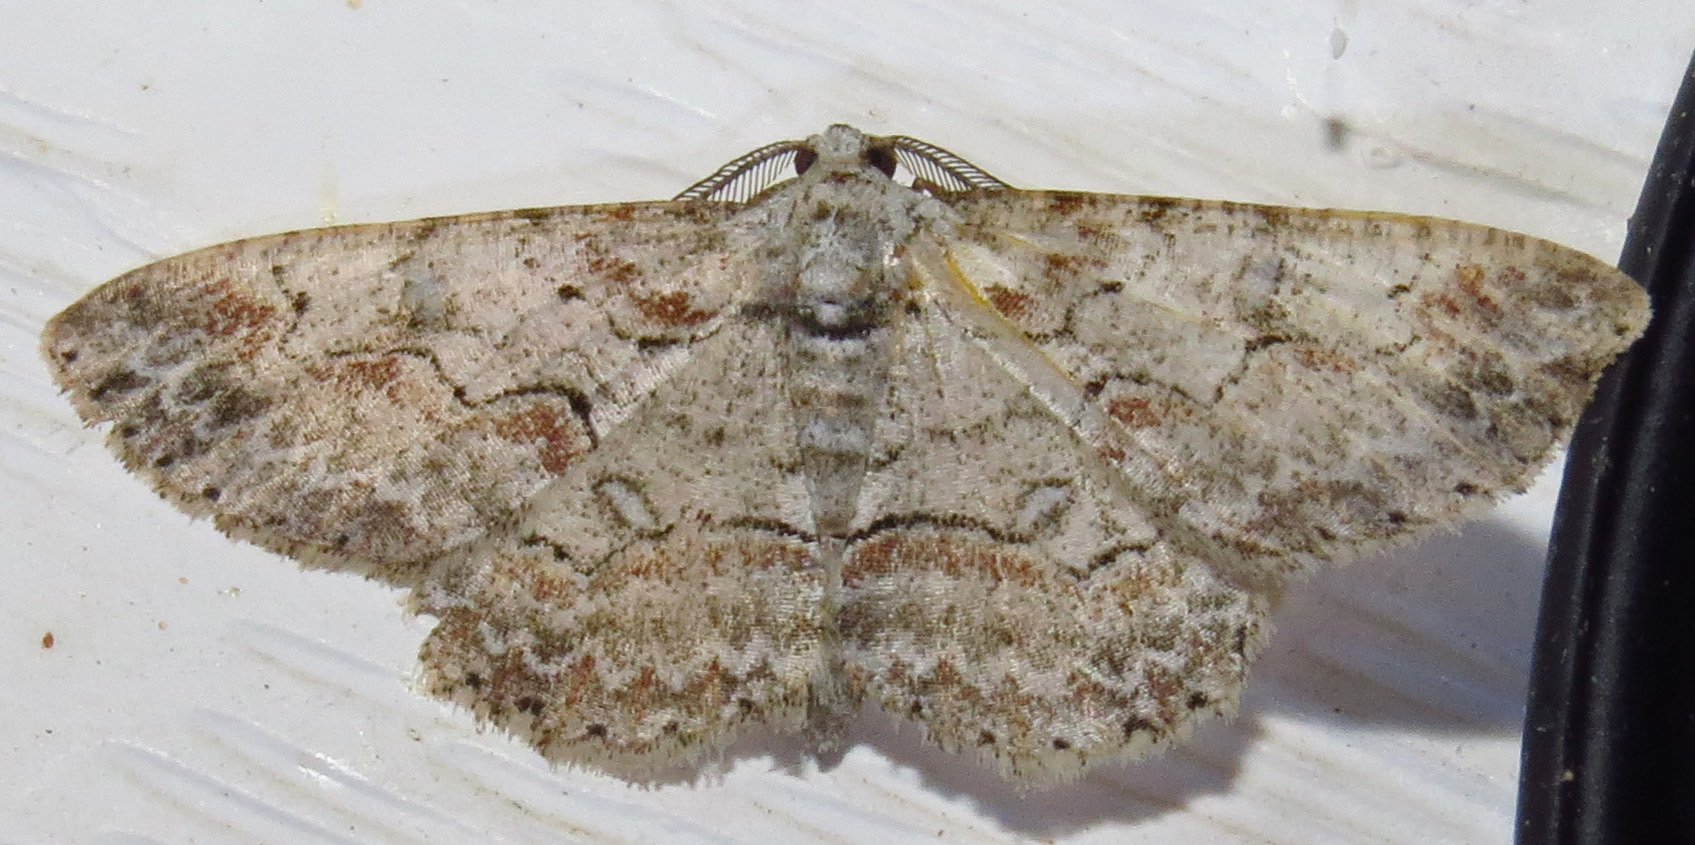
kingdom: Animalia
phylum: Arthropoda
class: Insecta
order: Lepidoptera
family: Geometridae
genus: Iridopsis
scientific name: Iridopsis defectaria
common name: Brown-shaded gray
